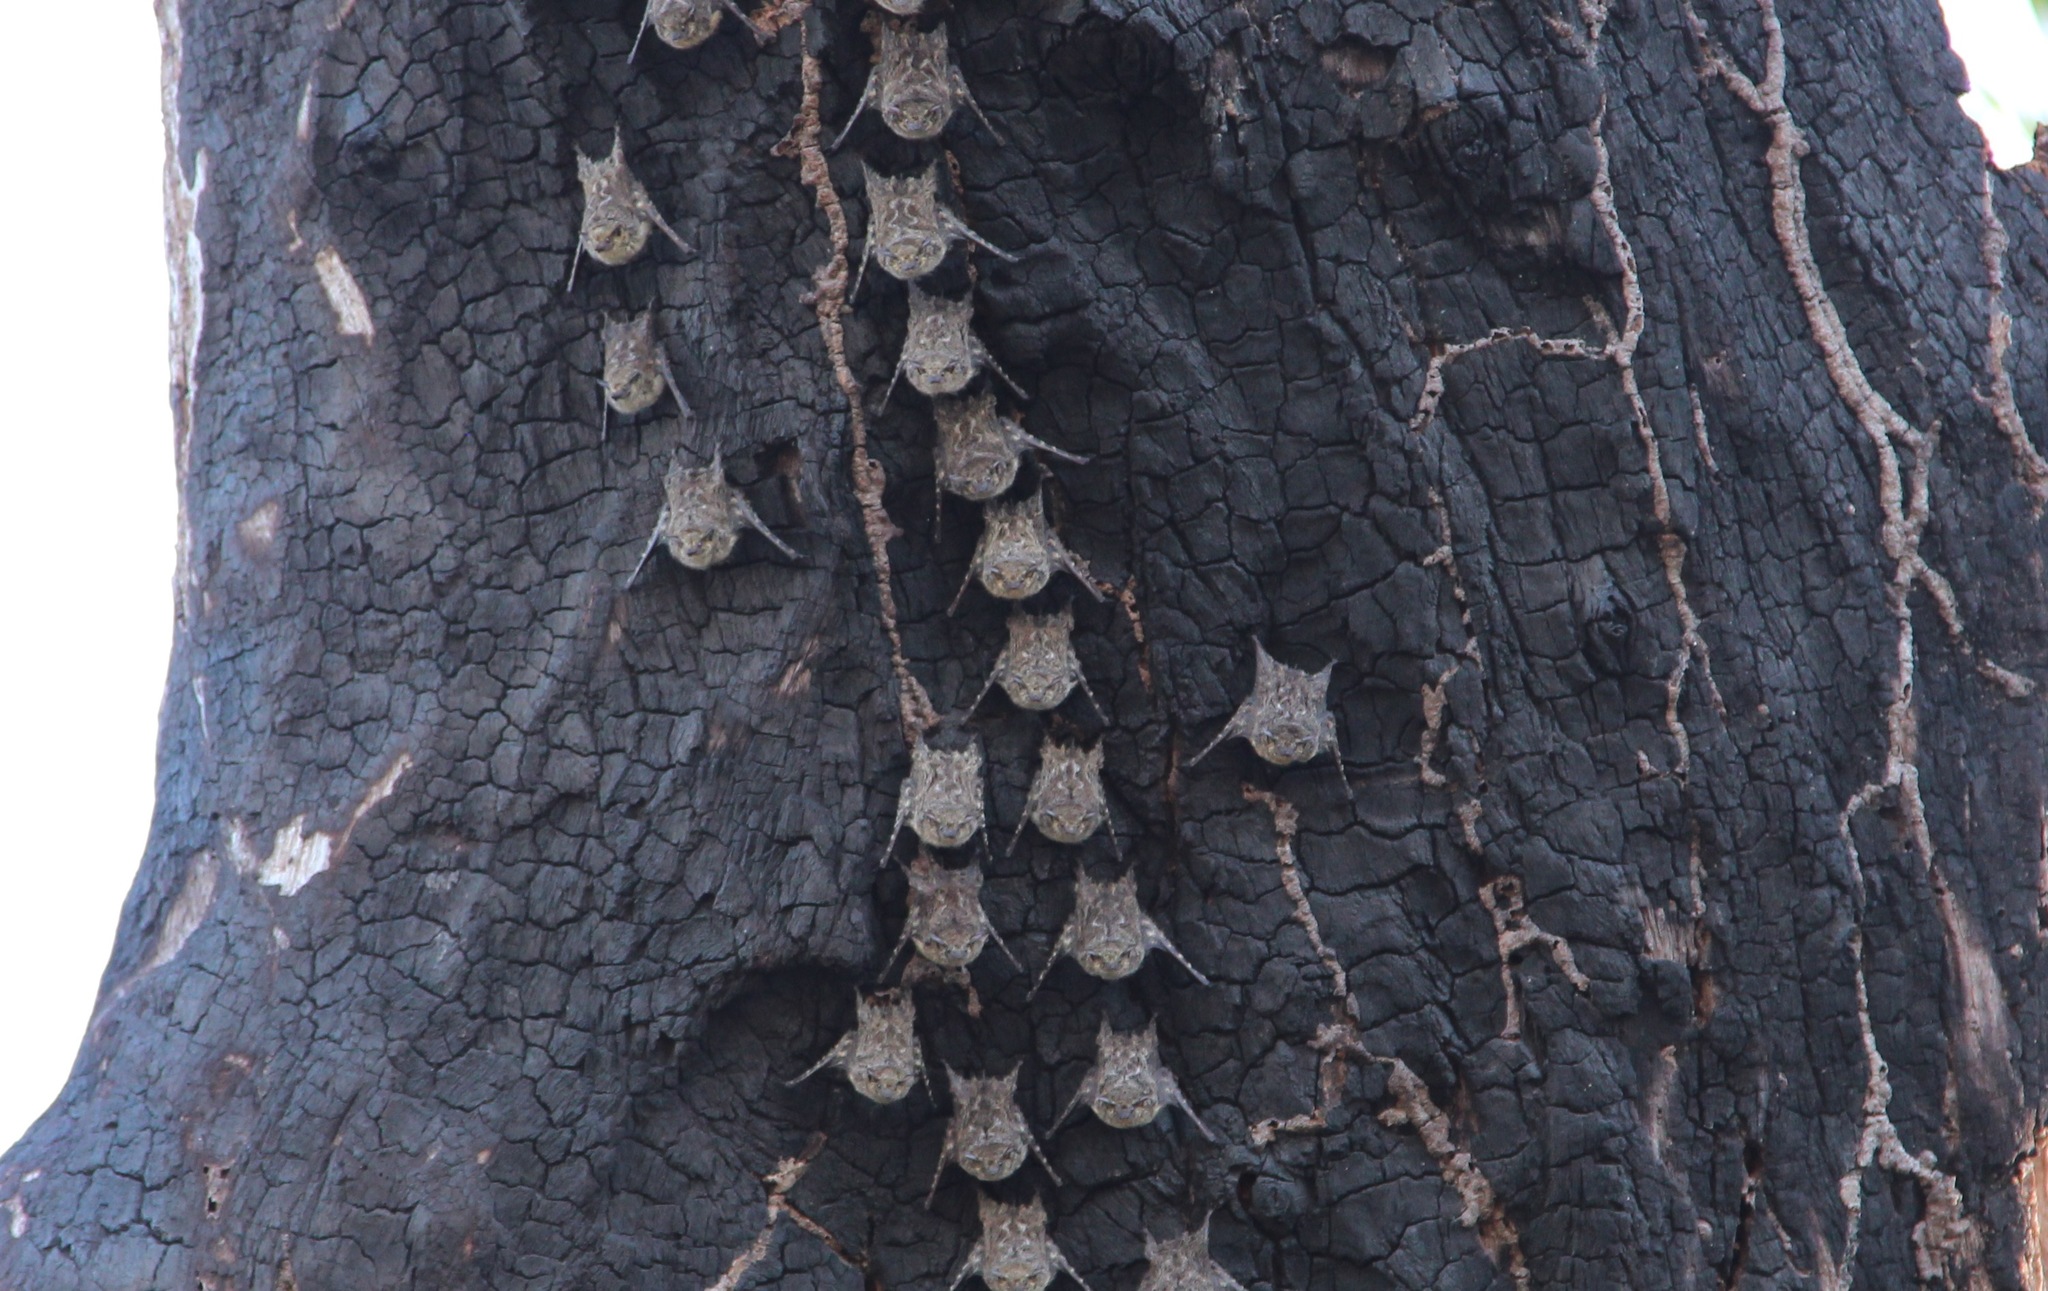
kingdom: Animalia
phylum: Chordata
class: Mammalia
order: Chiroptera
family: Emballonuridae
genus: Rhynchonycteris
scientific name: Rhynchonycteris naso
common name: Proboscis bat
